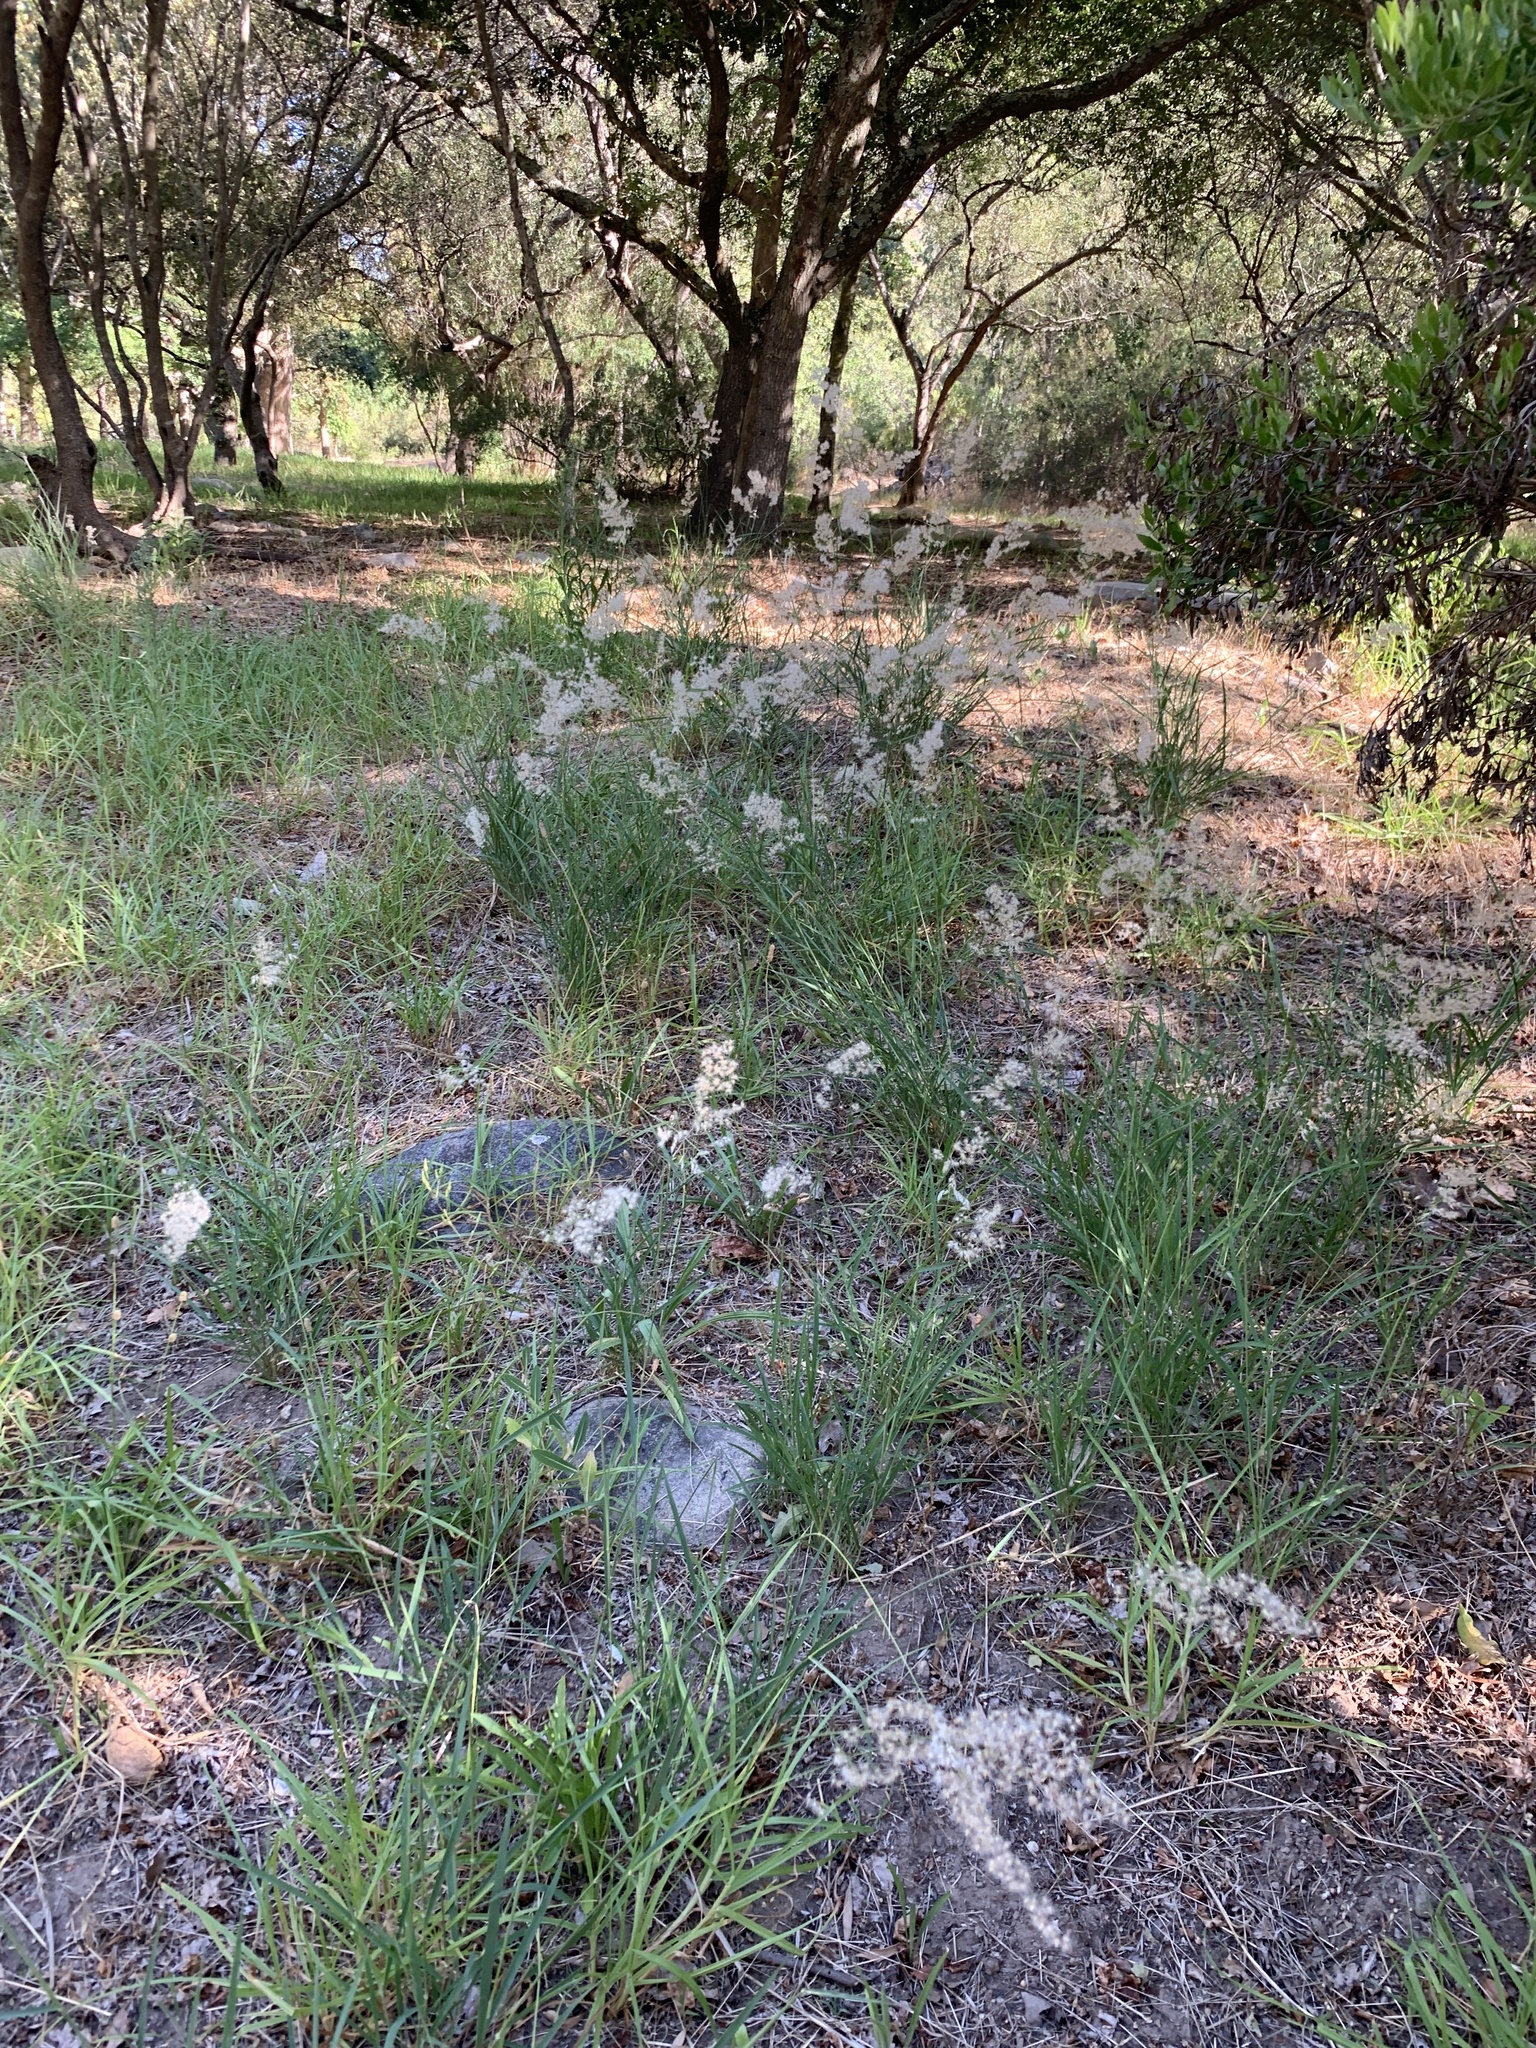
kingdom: Plantae
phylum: Tracheophyta
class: Liliopsida
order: Poales
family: Poaceae
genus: Melinis
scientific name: Melinis repens
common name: Rose natal grass
